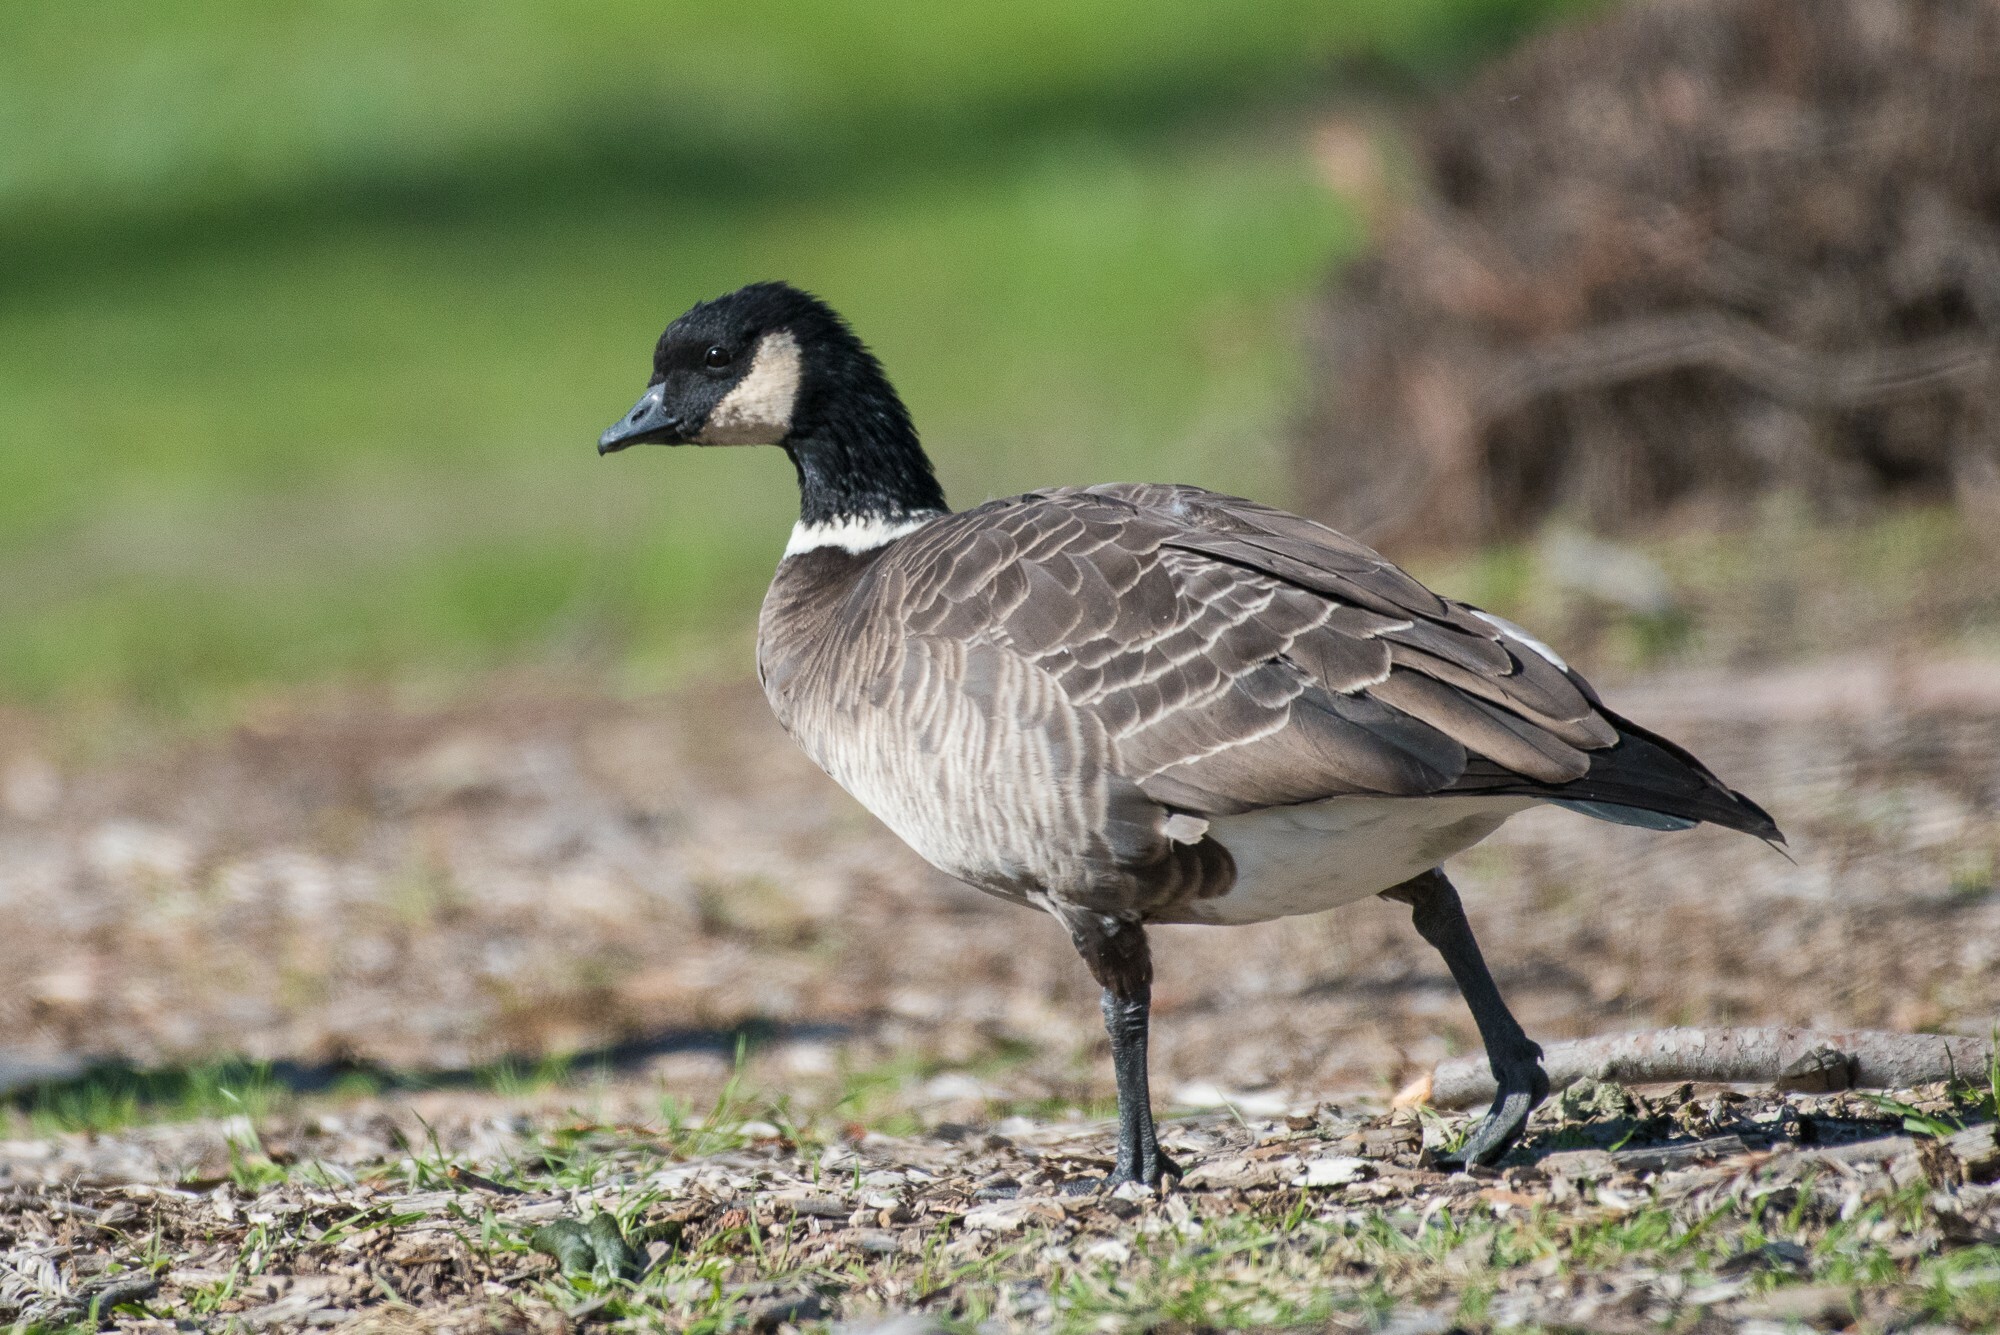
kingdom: Animalia
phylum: Chordata
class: Aves
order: Anseriformes
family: Anatidae
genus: Branta
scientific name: Branta hutchinsii
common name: Cackling goose
